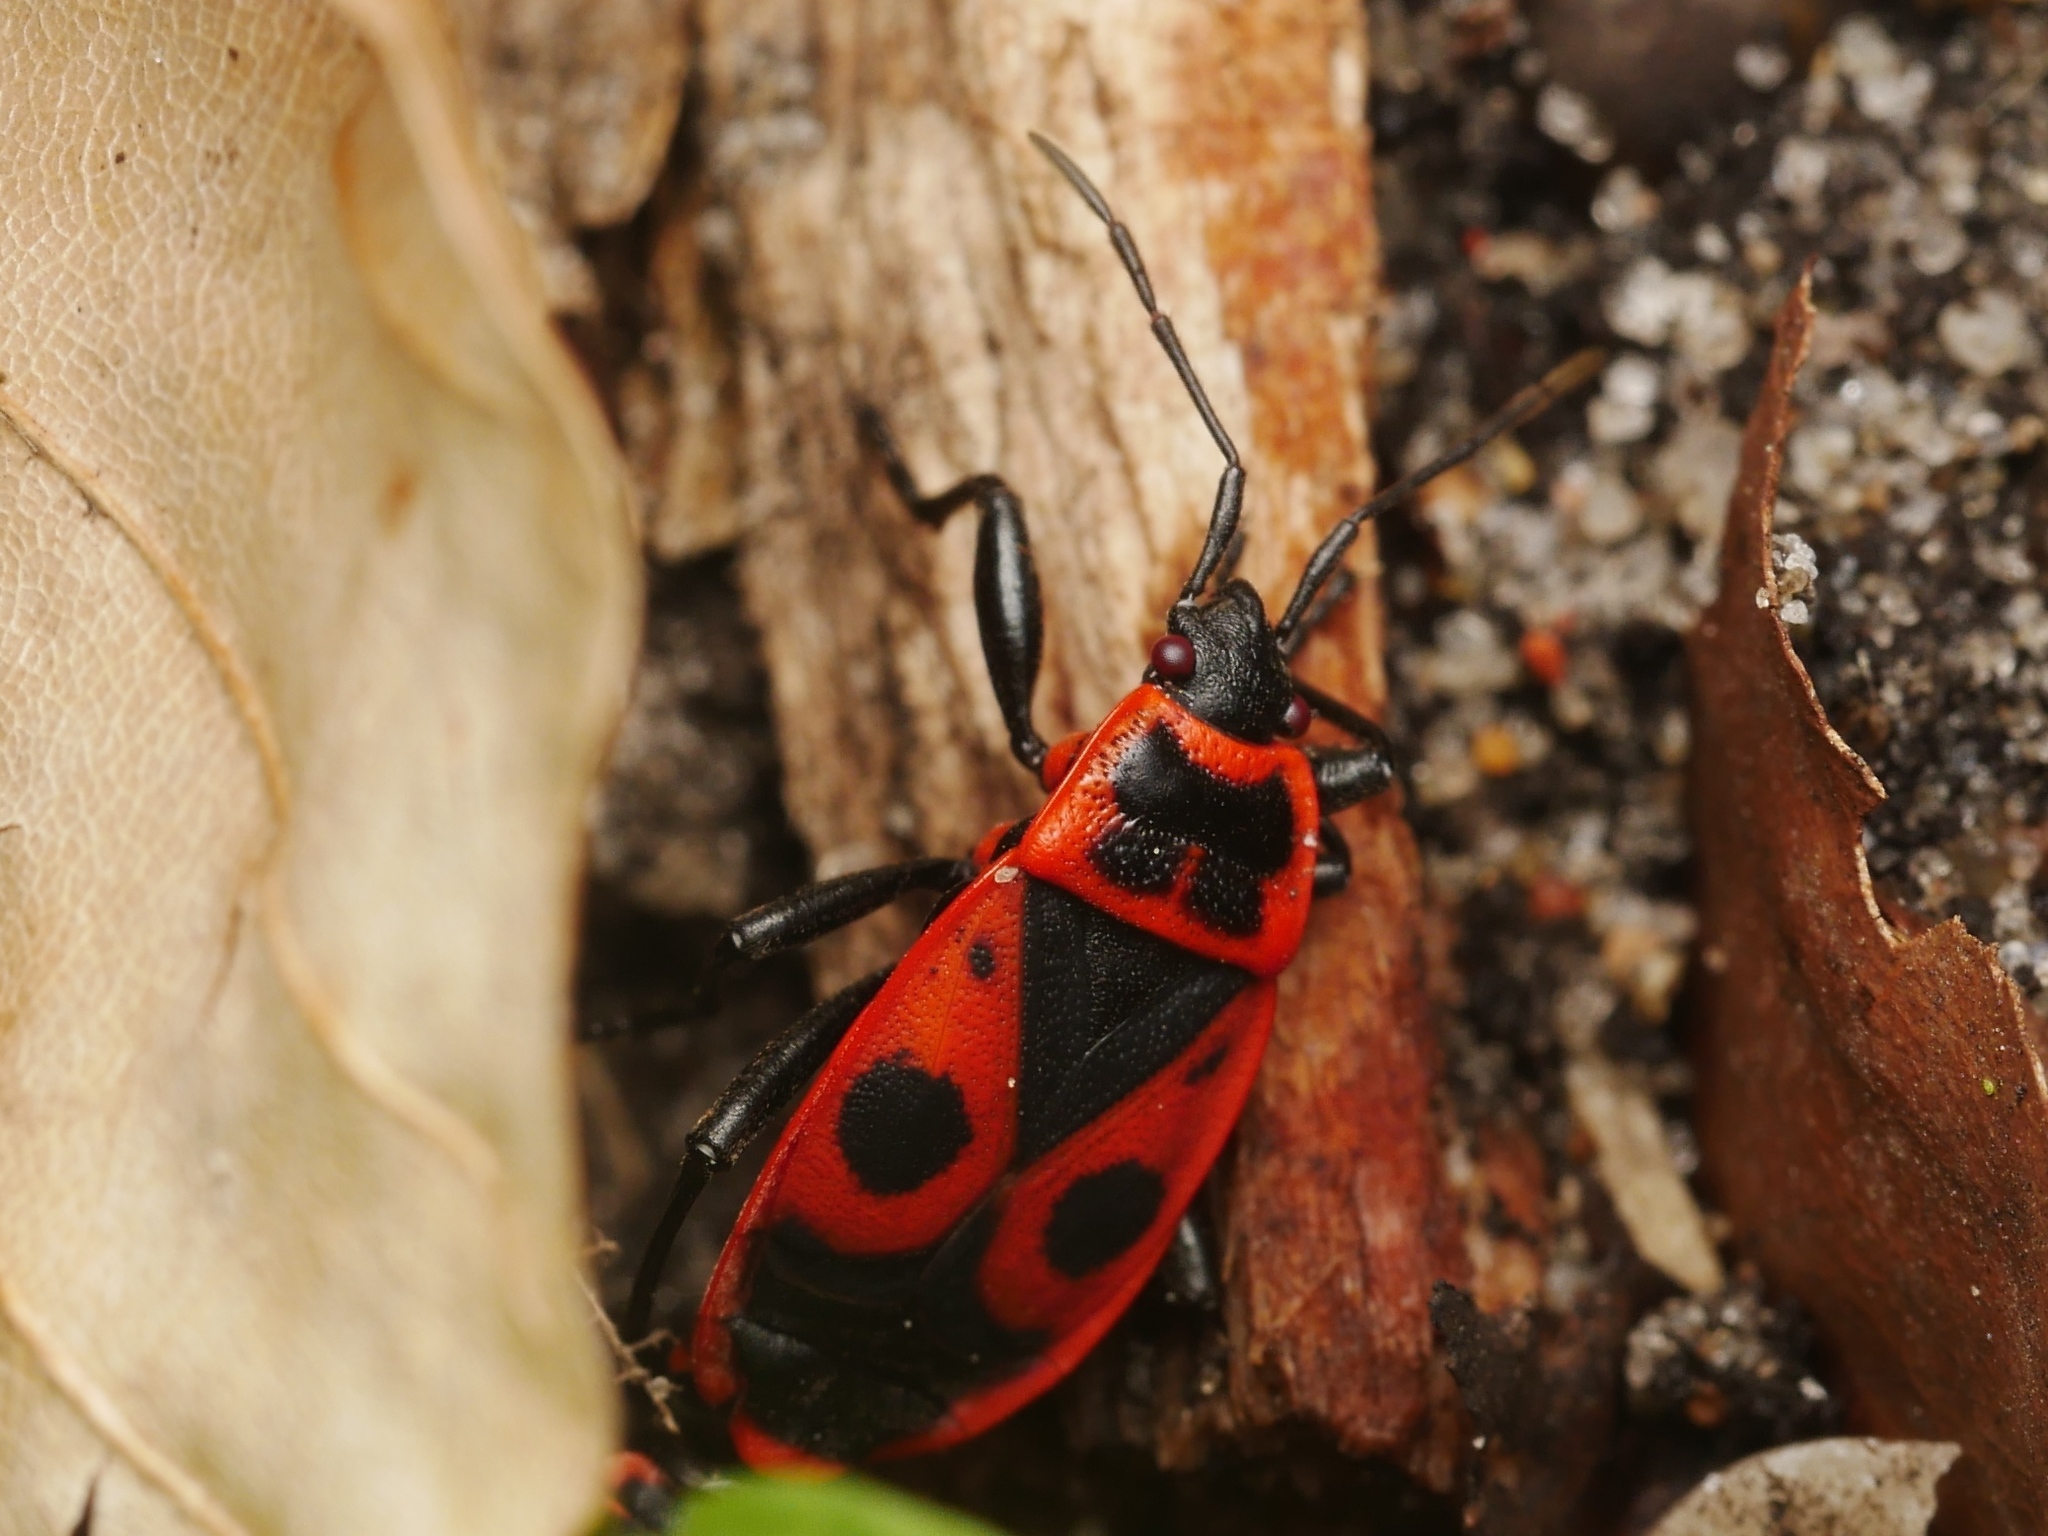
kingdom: Animalia
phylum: Arthropoda
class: Insecta
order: Hemiptera
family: Pyrrhocoridae
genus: Pyrrhocoris
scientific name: Pyrrhocoris apterus
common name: Firebug
